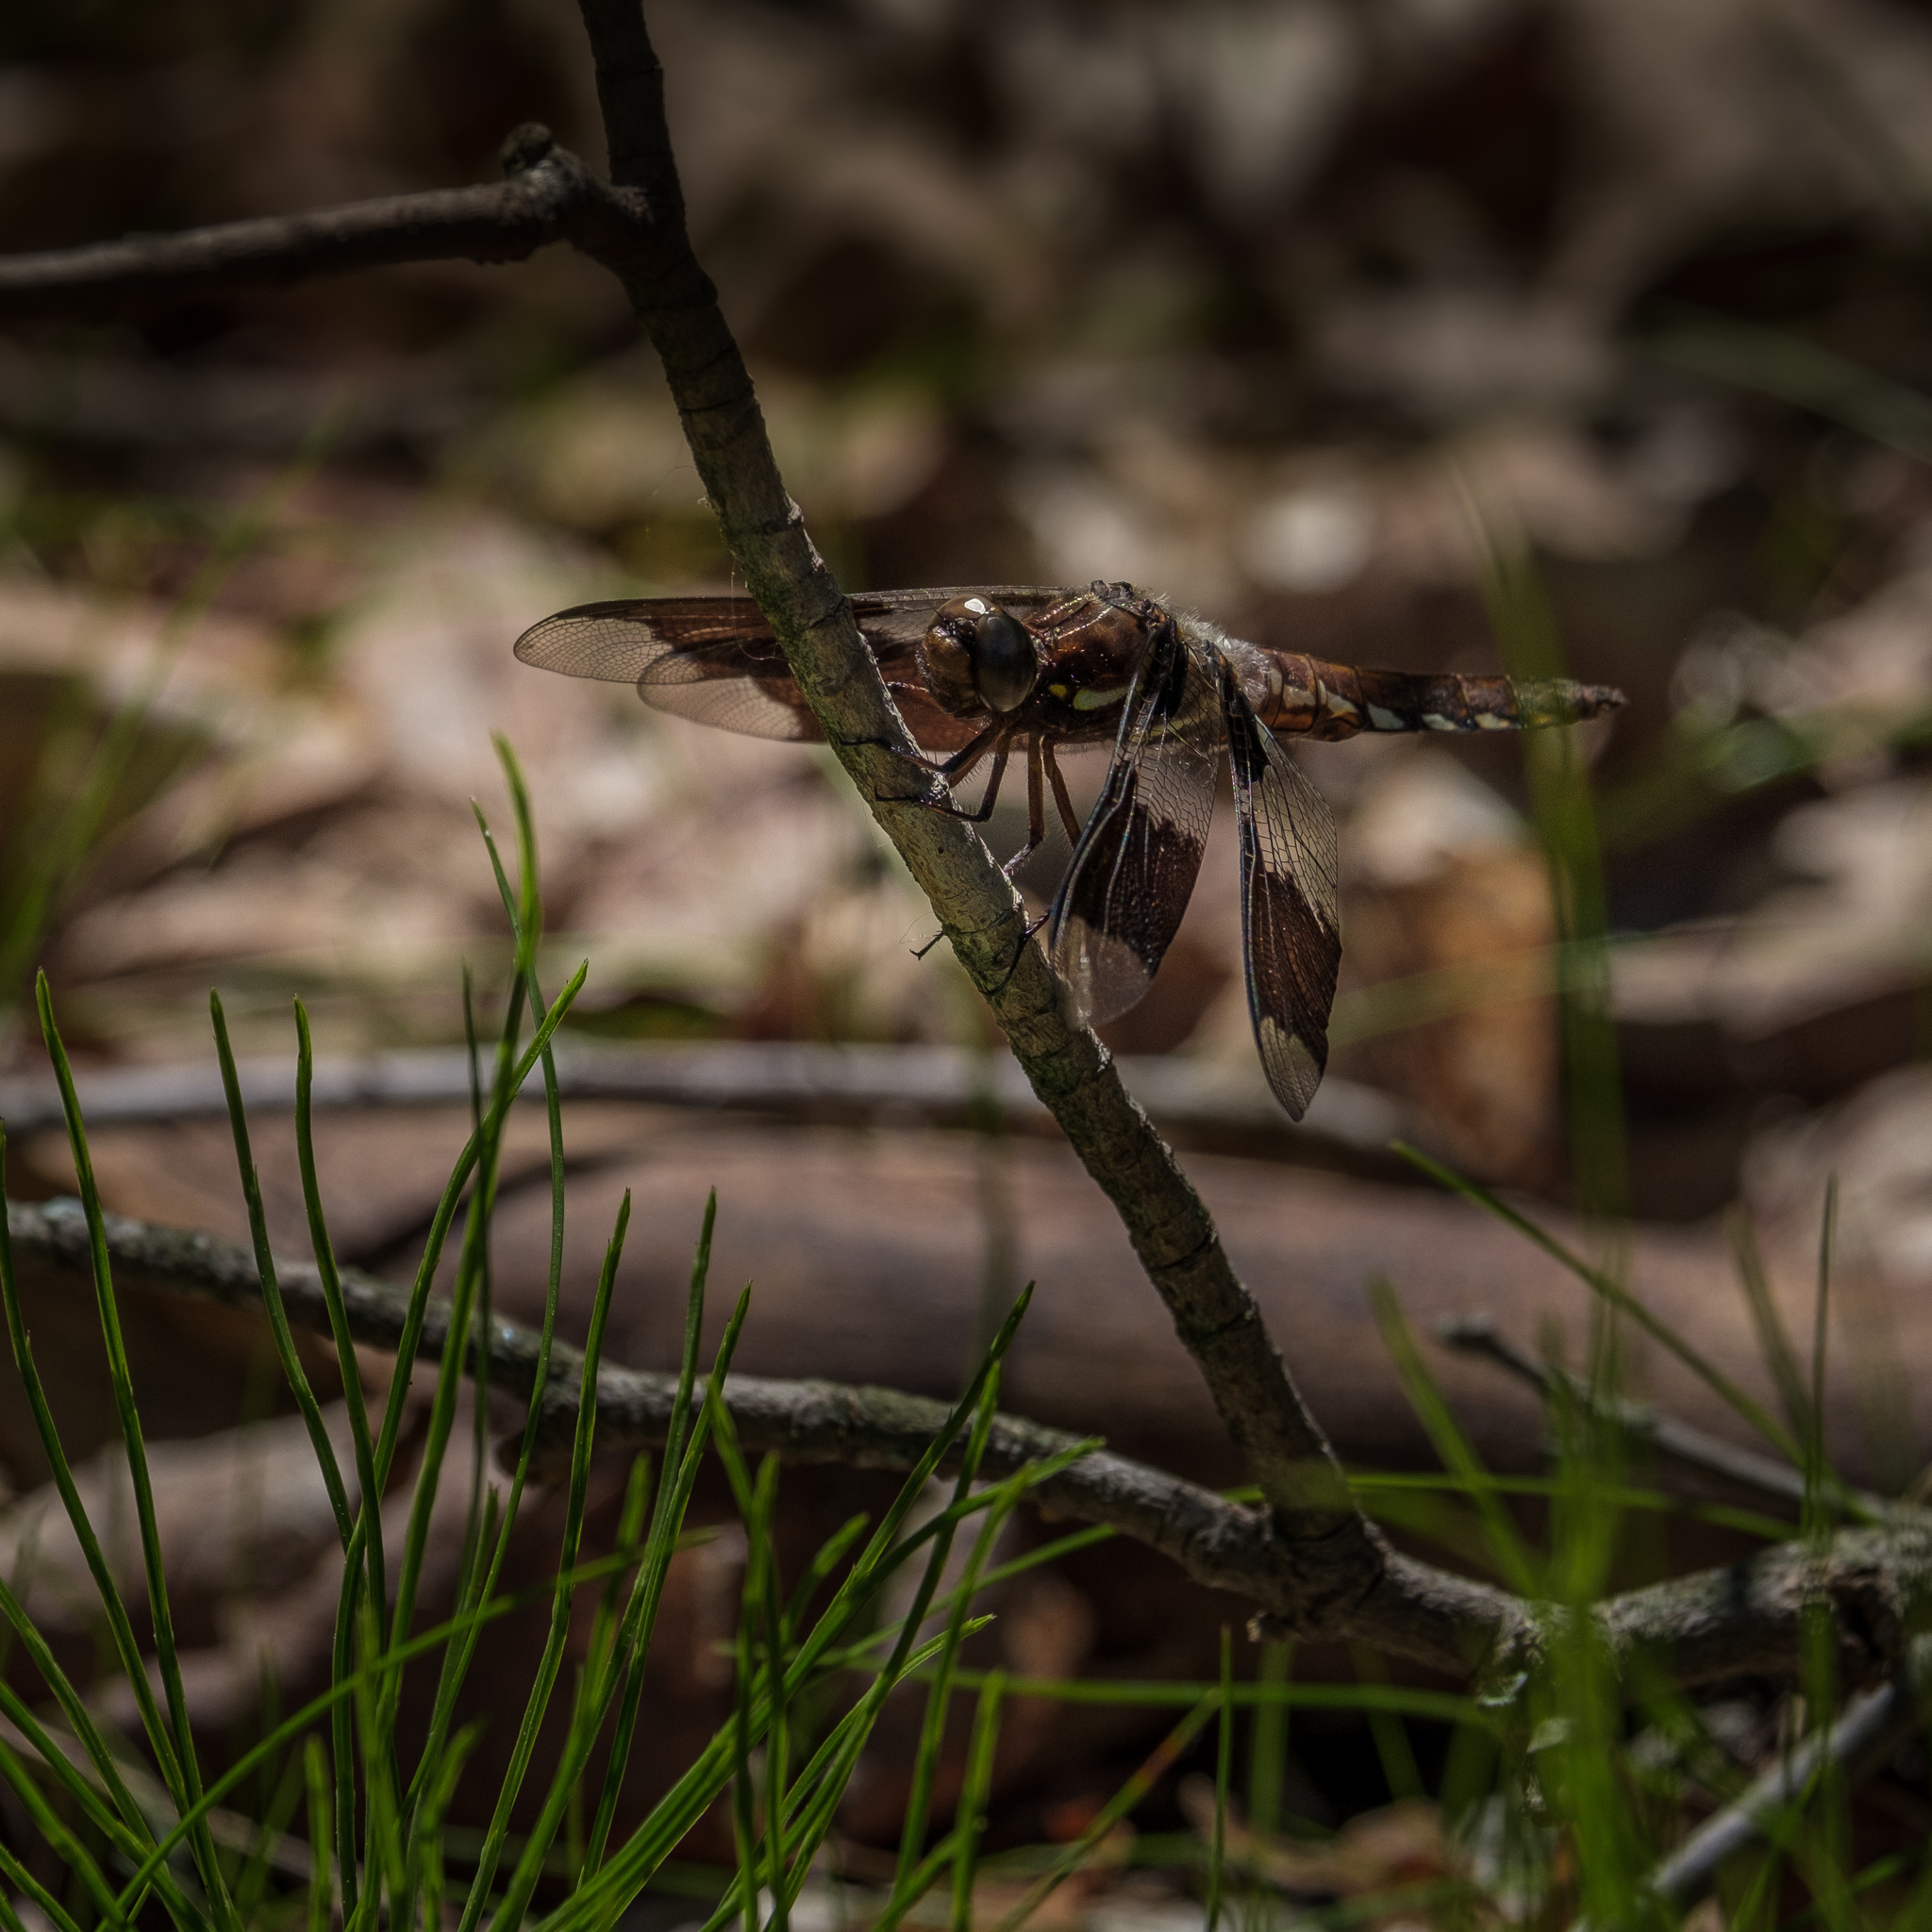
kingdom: Animalia
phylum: Arthropoda
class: Insecta
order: Odonata
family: Libellulidae
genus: Plathemis
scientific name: Plathemis lydia
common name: Common whitetail
